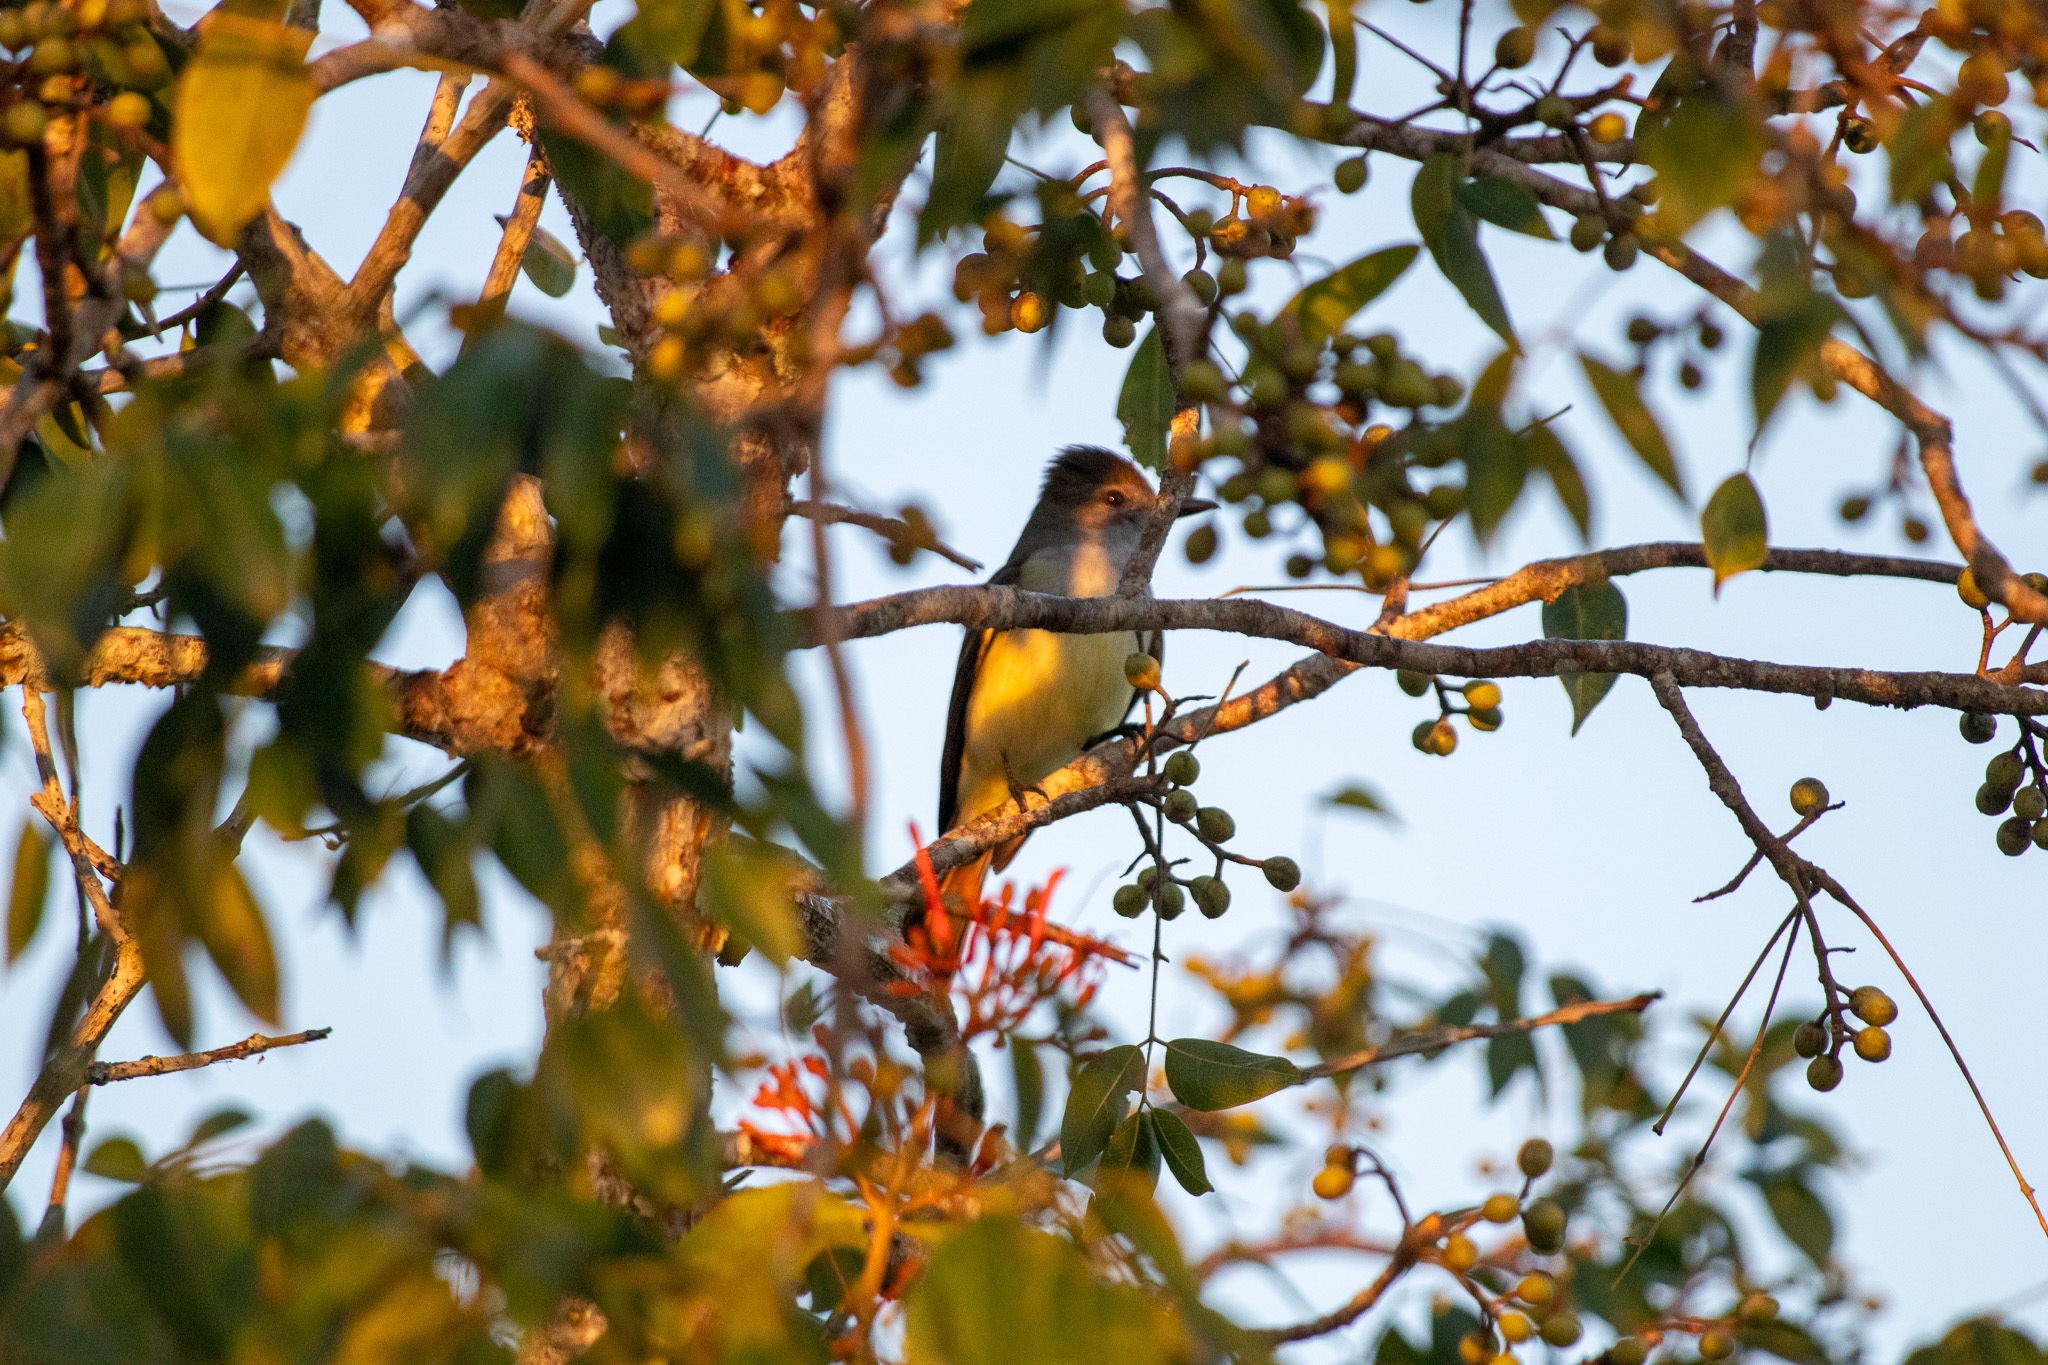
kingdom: Animalia
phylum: Chordata
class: Aves
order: Passeriformes
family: Tyrannidae
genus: Myiarchus
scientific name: Myiarchus tyrannulus
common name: Brown-crested flycatcher
